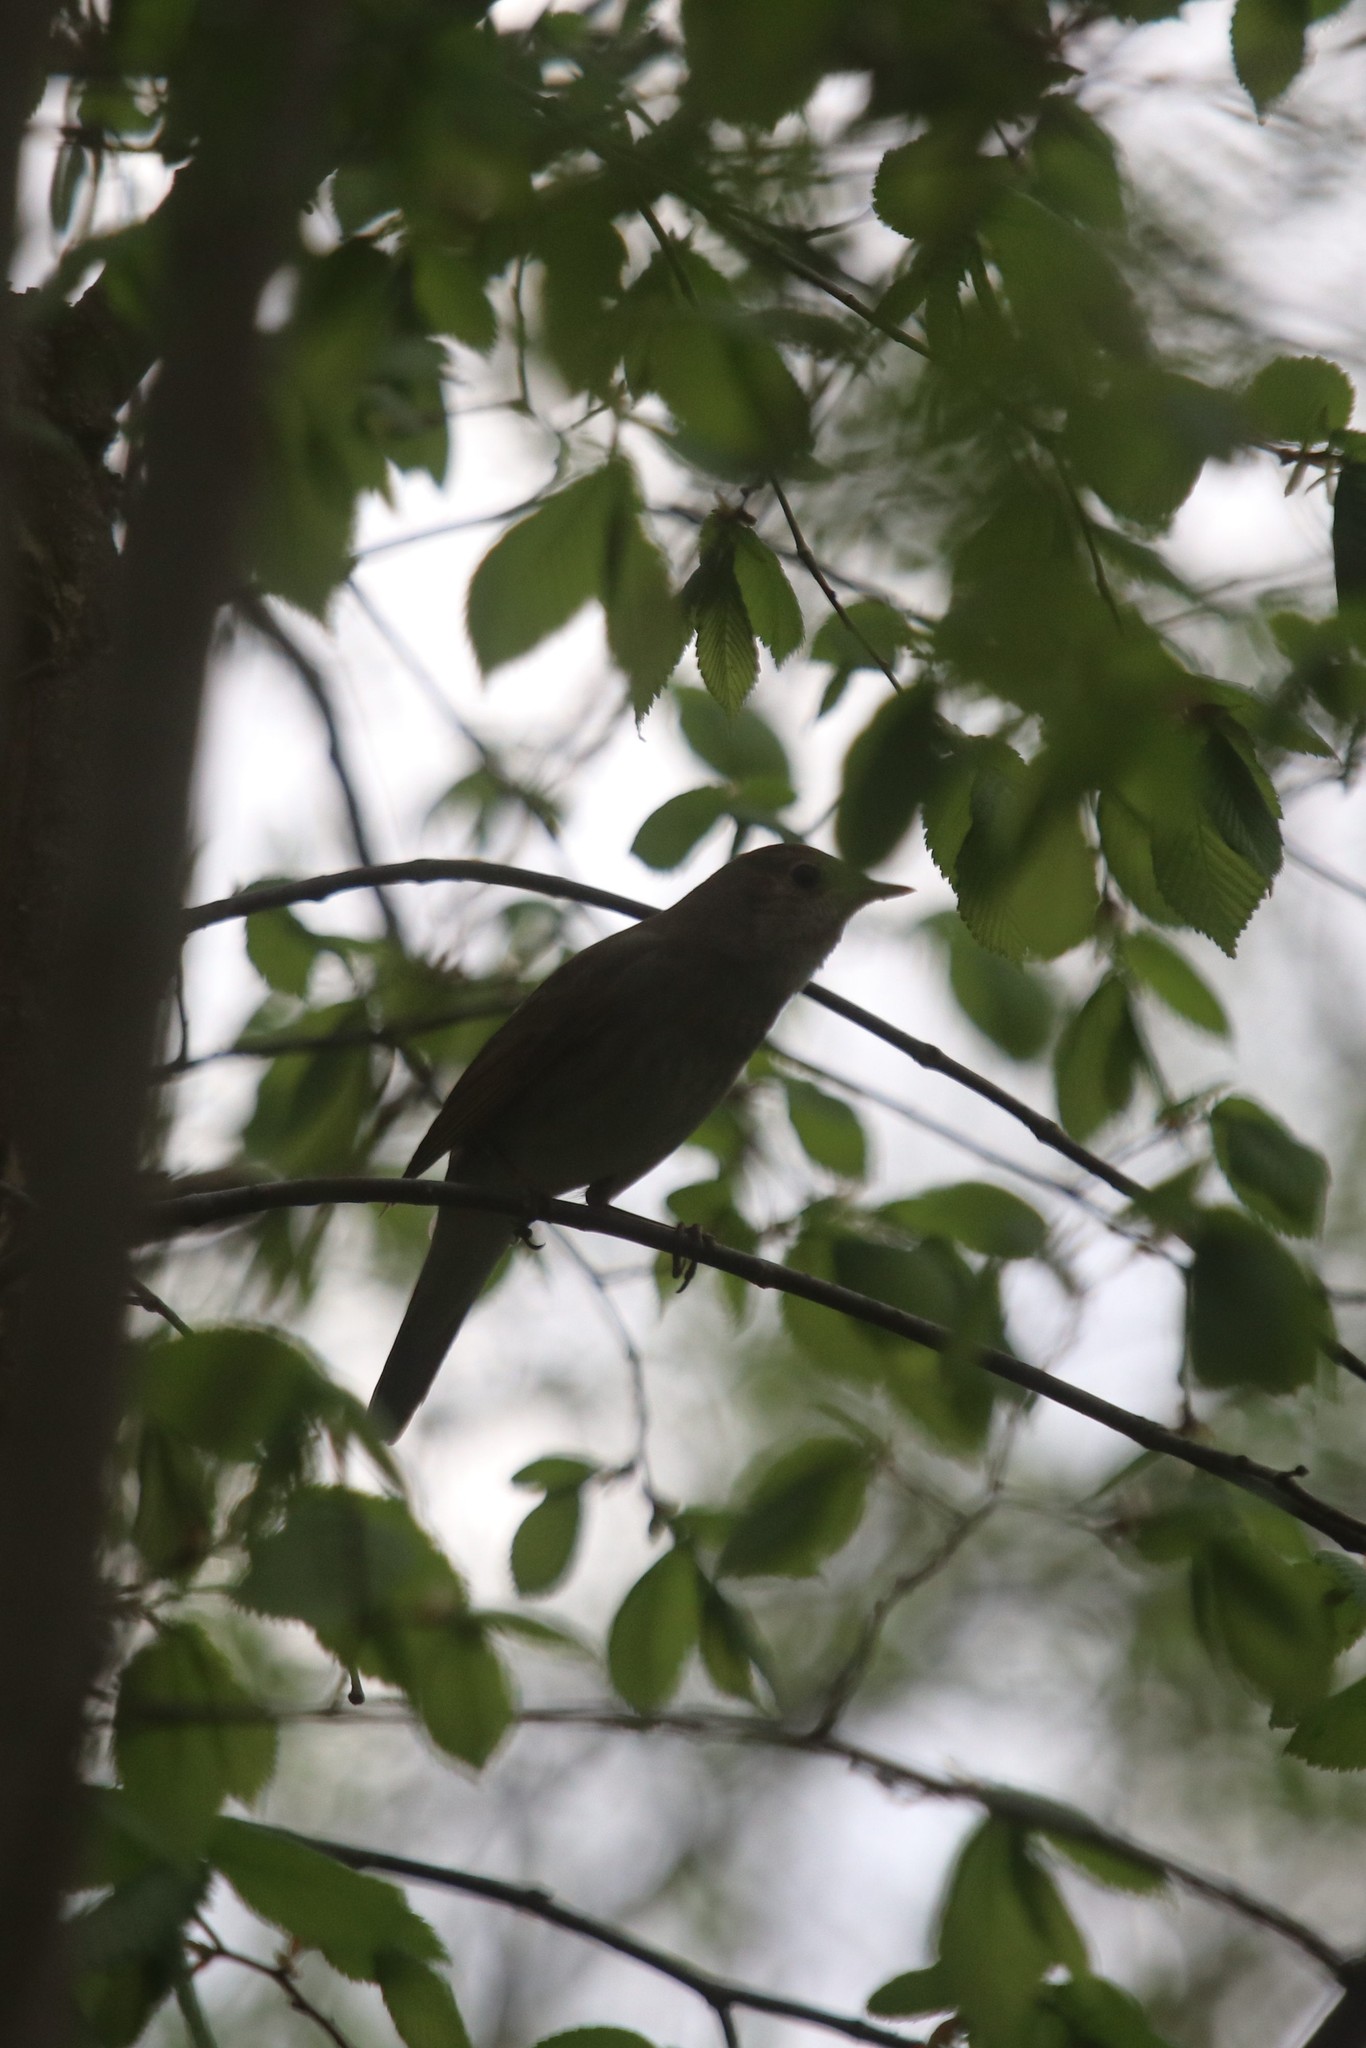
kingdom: Animalia
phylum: Chordata
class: Aves
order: Passeriformes
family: Muscicapidae
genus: Luscinia
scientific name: Luscinia luscinia
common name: Thrush nightingale
